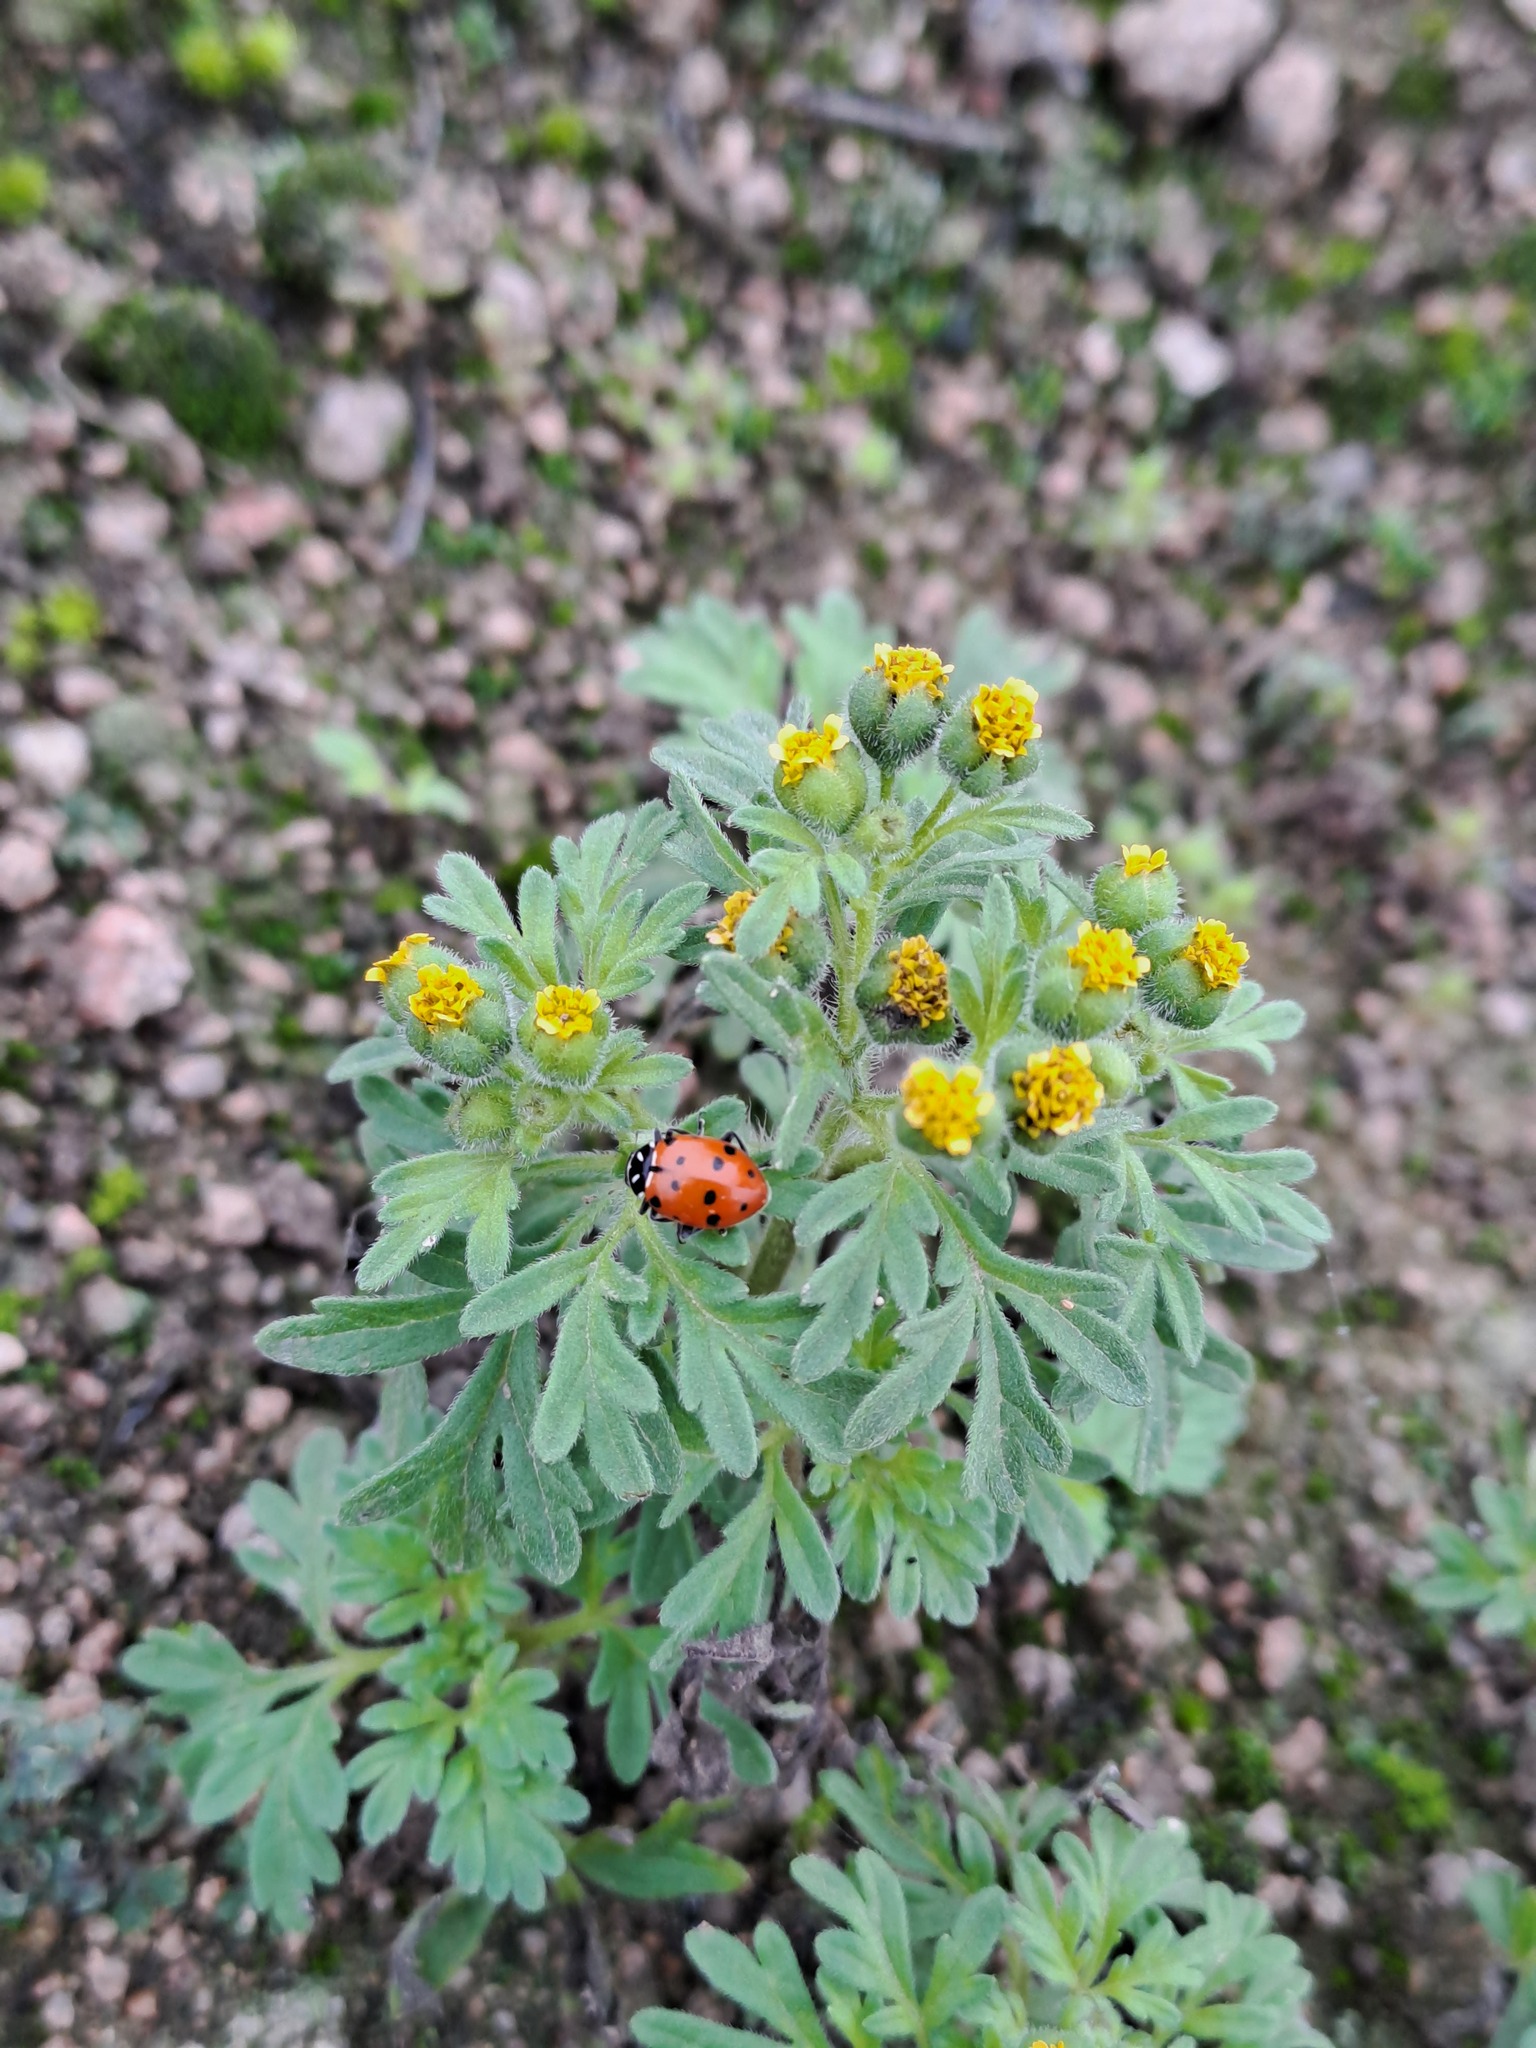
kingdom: Animalia
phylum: Arthropoda
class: Insecta
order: Coleoptera
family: Coccinellidae
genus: Hippodamia
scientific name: Hippodamia convergens
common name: Convergent lady beetle
